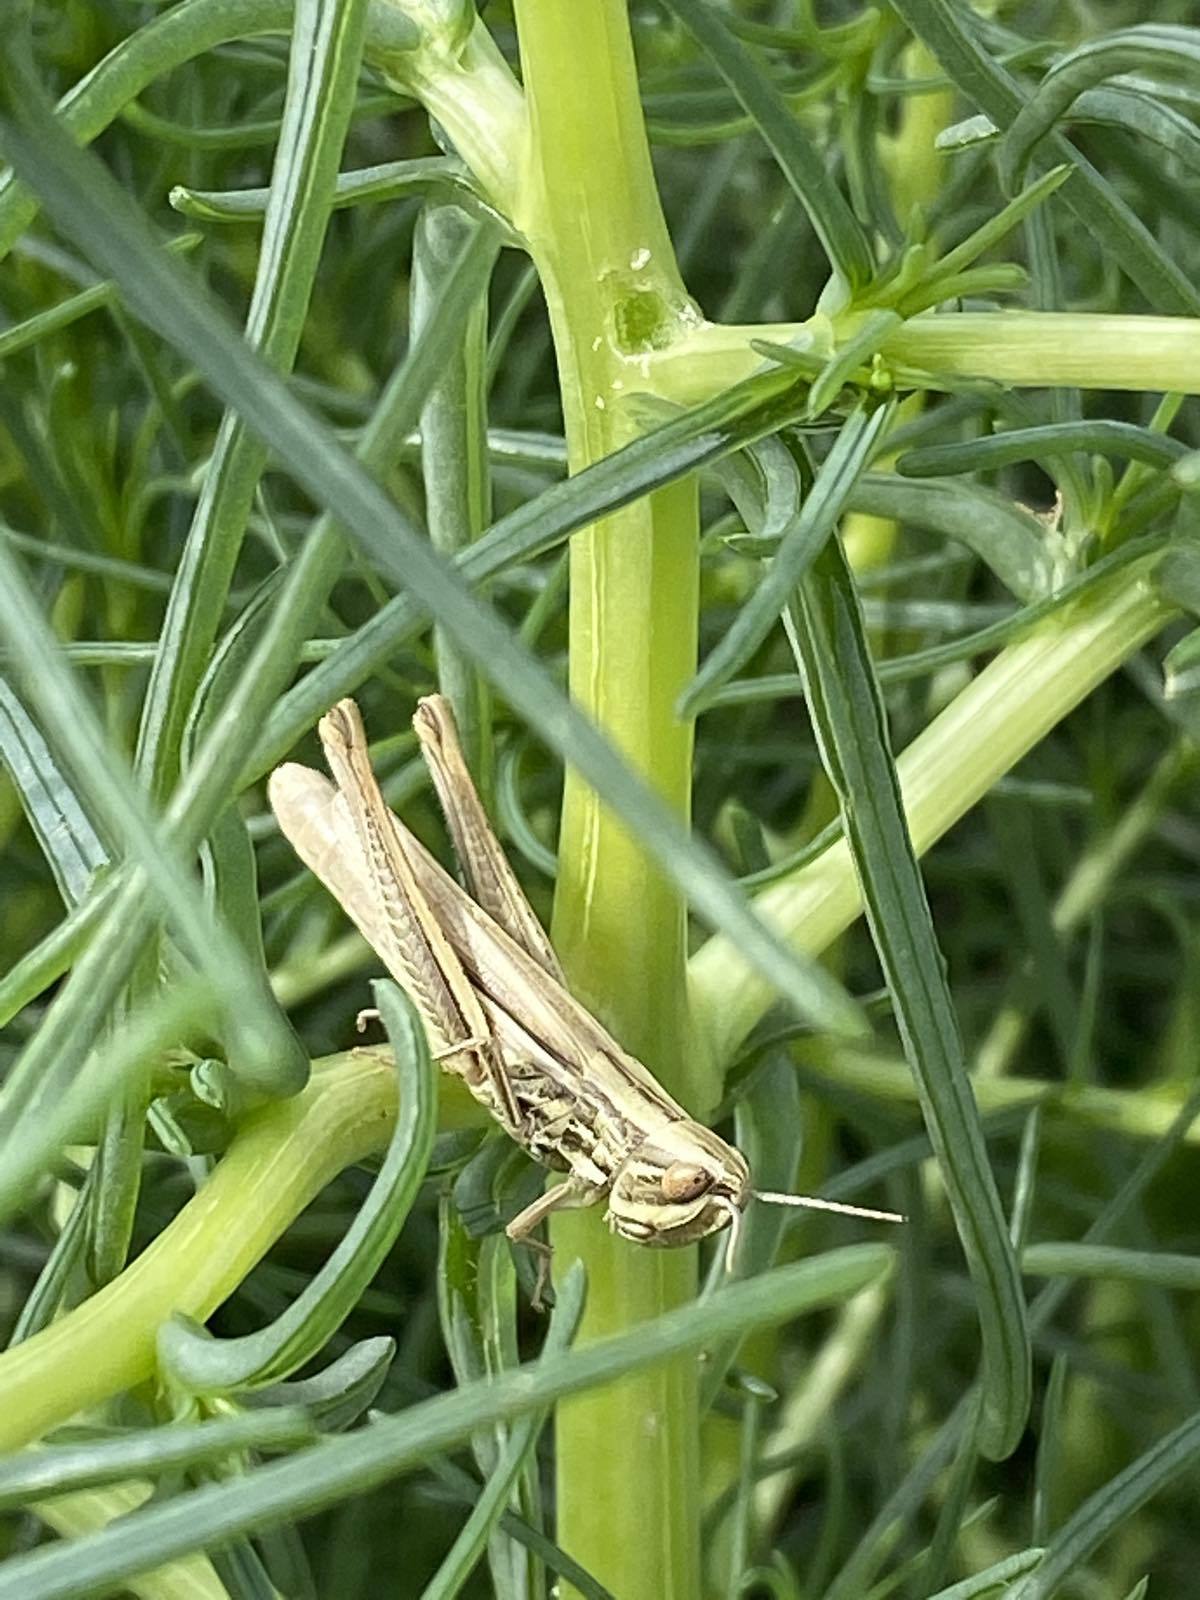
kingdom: Animalia
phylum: Arthropoda
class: Insecta
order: Orthoptera
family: Acrididae
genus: Euchorthippus
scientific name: Euchorthippus pulvinatus
